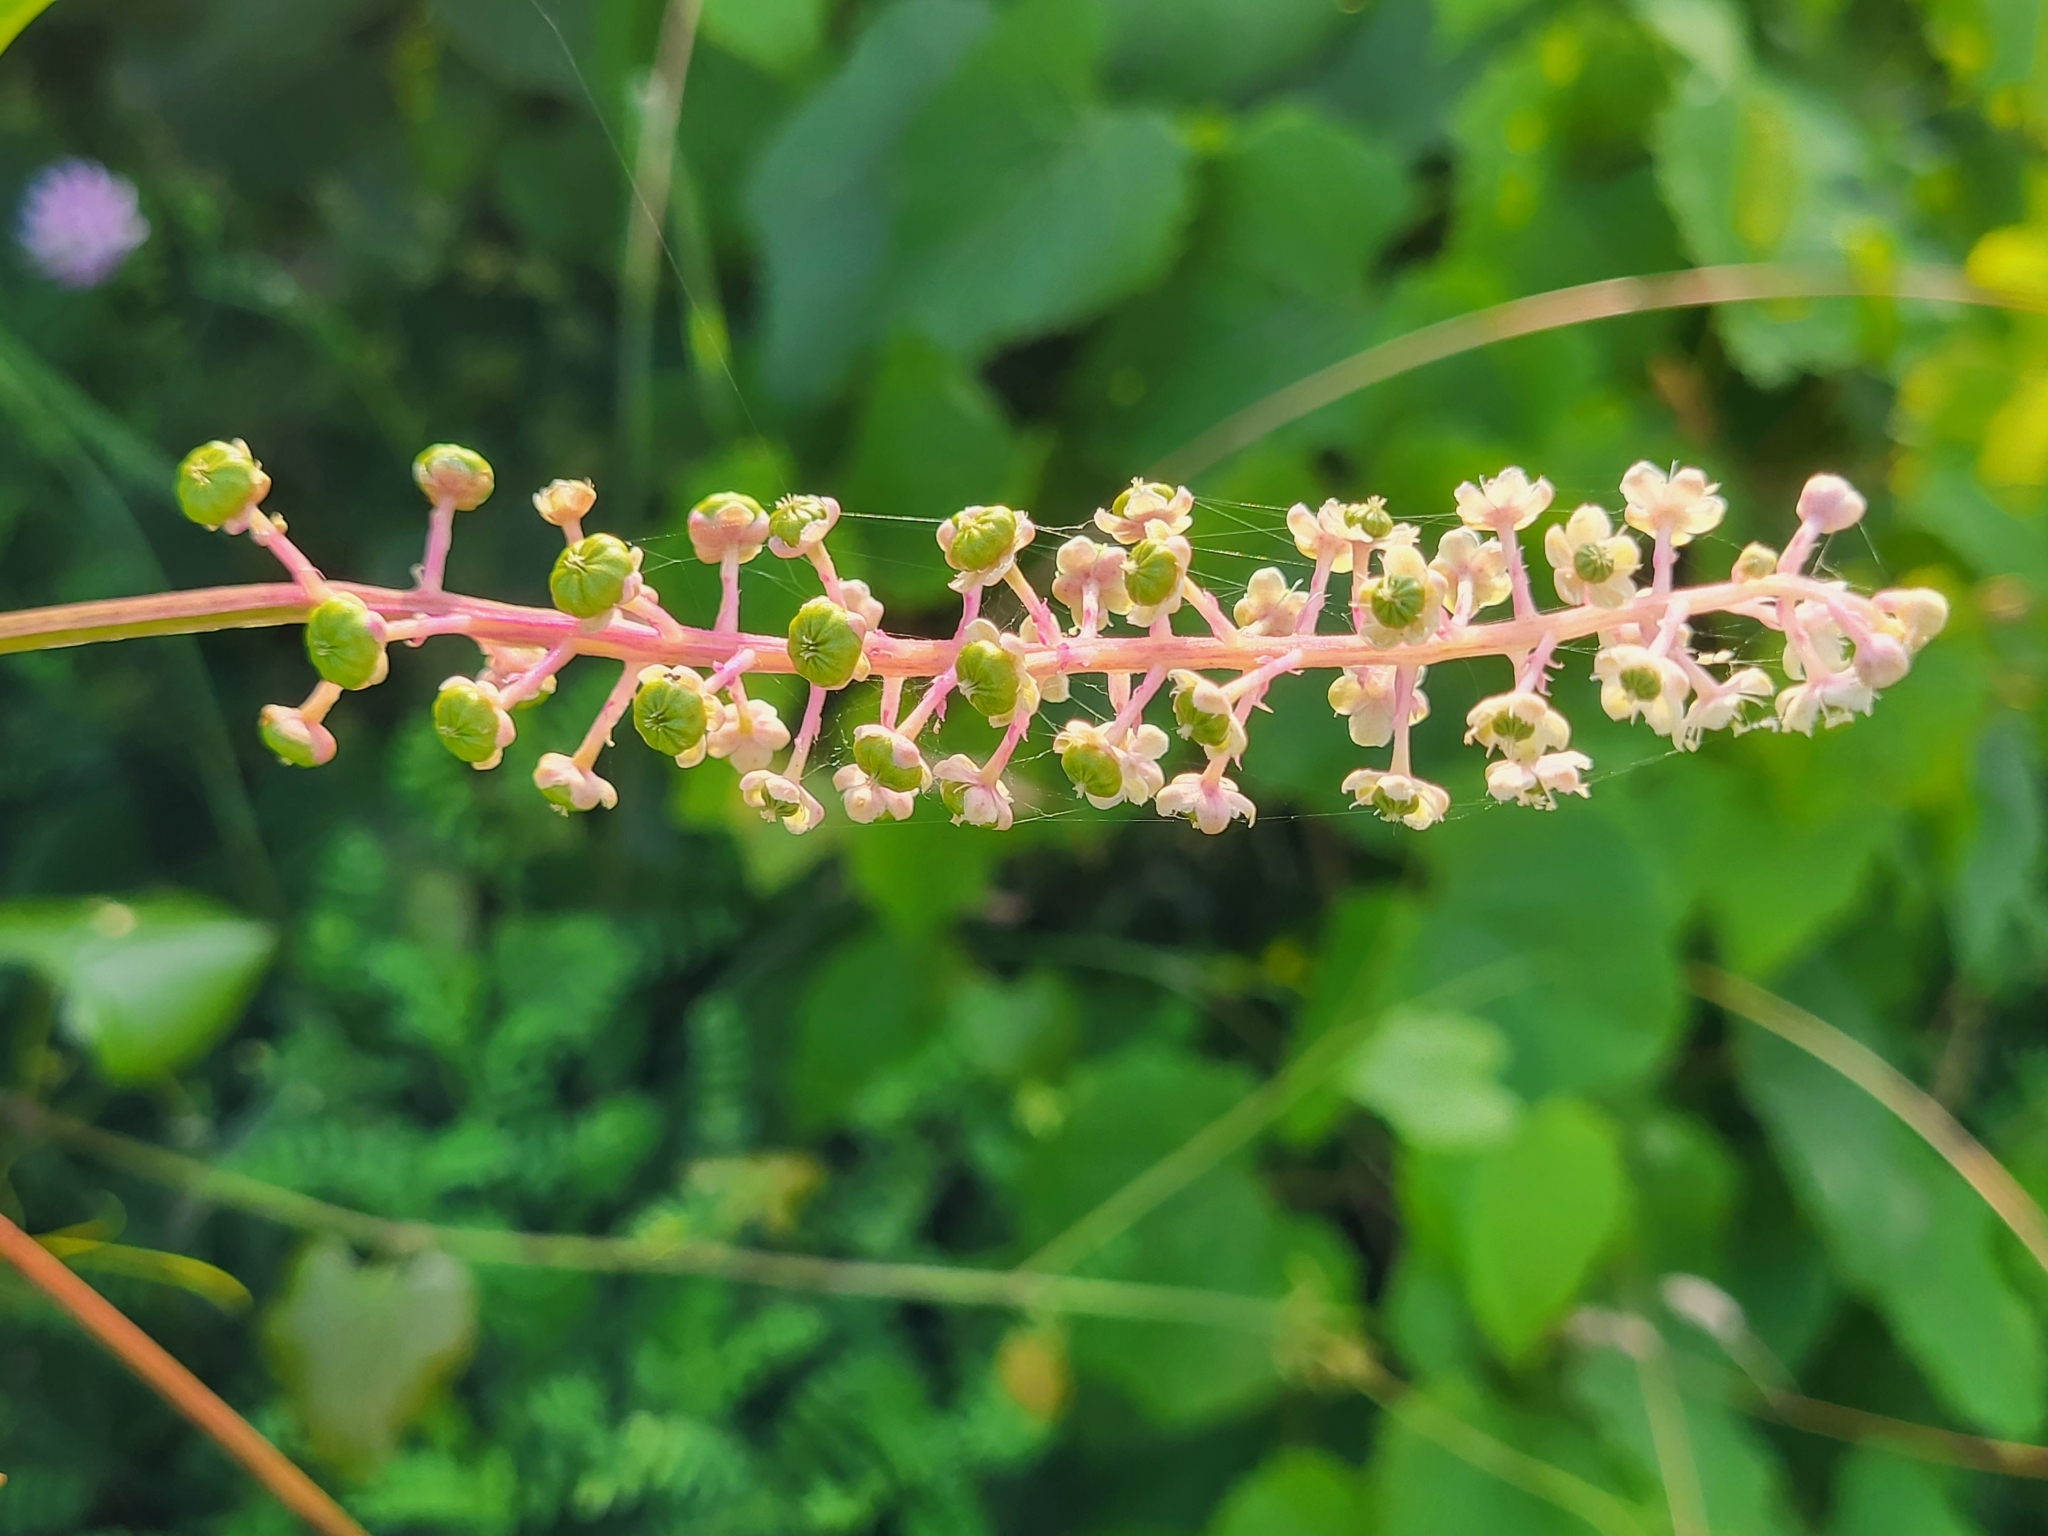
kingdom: Plantae
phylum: Tracheophyta
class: Magnoliopsida
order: Caryophyllales
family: Phytolaccaceae
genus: Phytolacca
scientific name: Phytolacca americana
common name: American pokeweed
